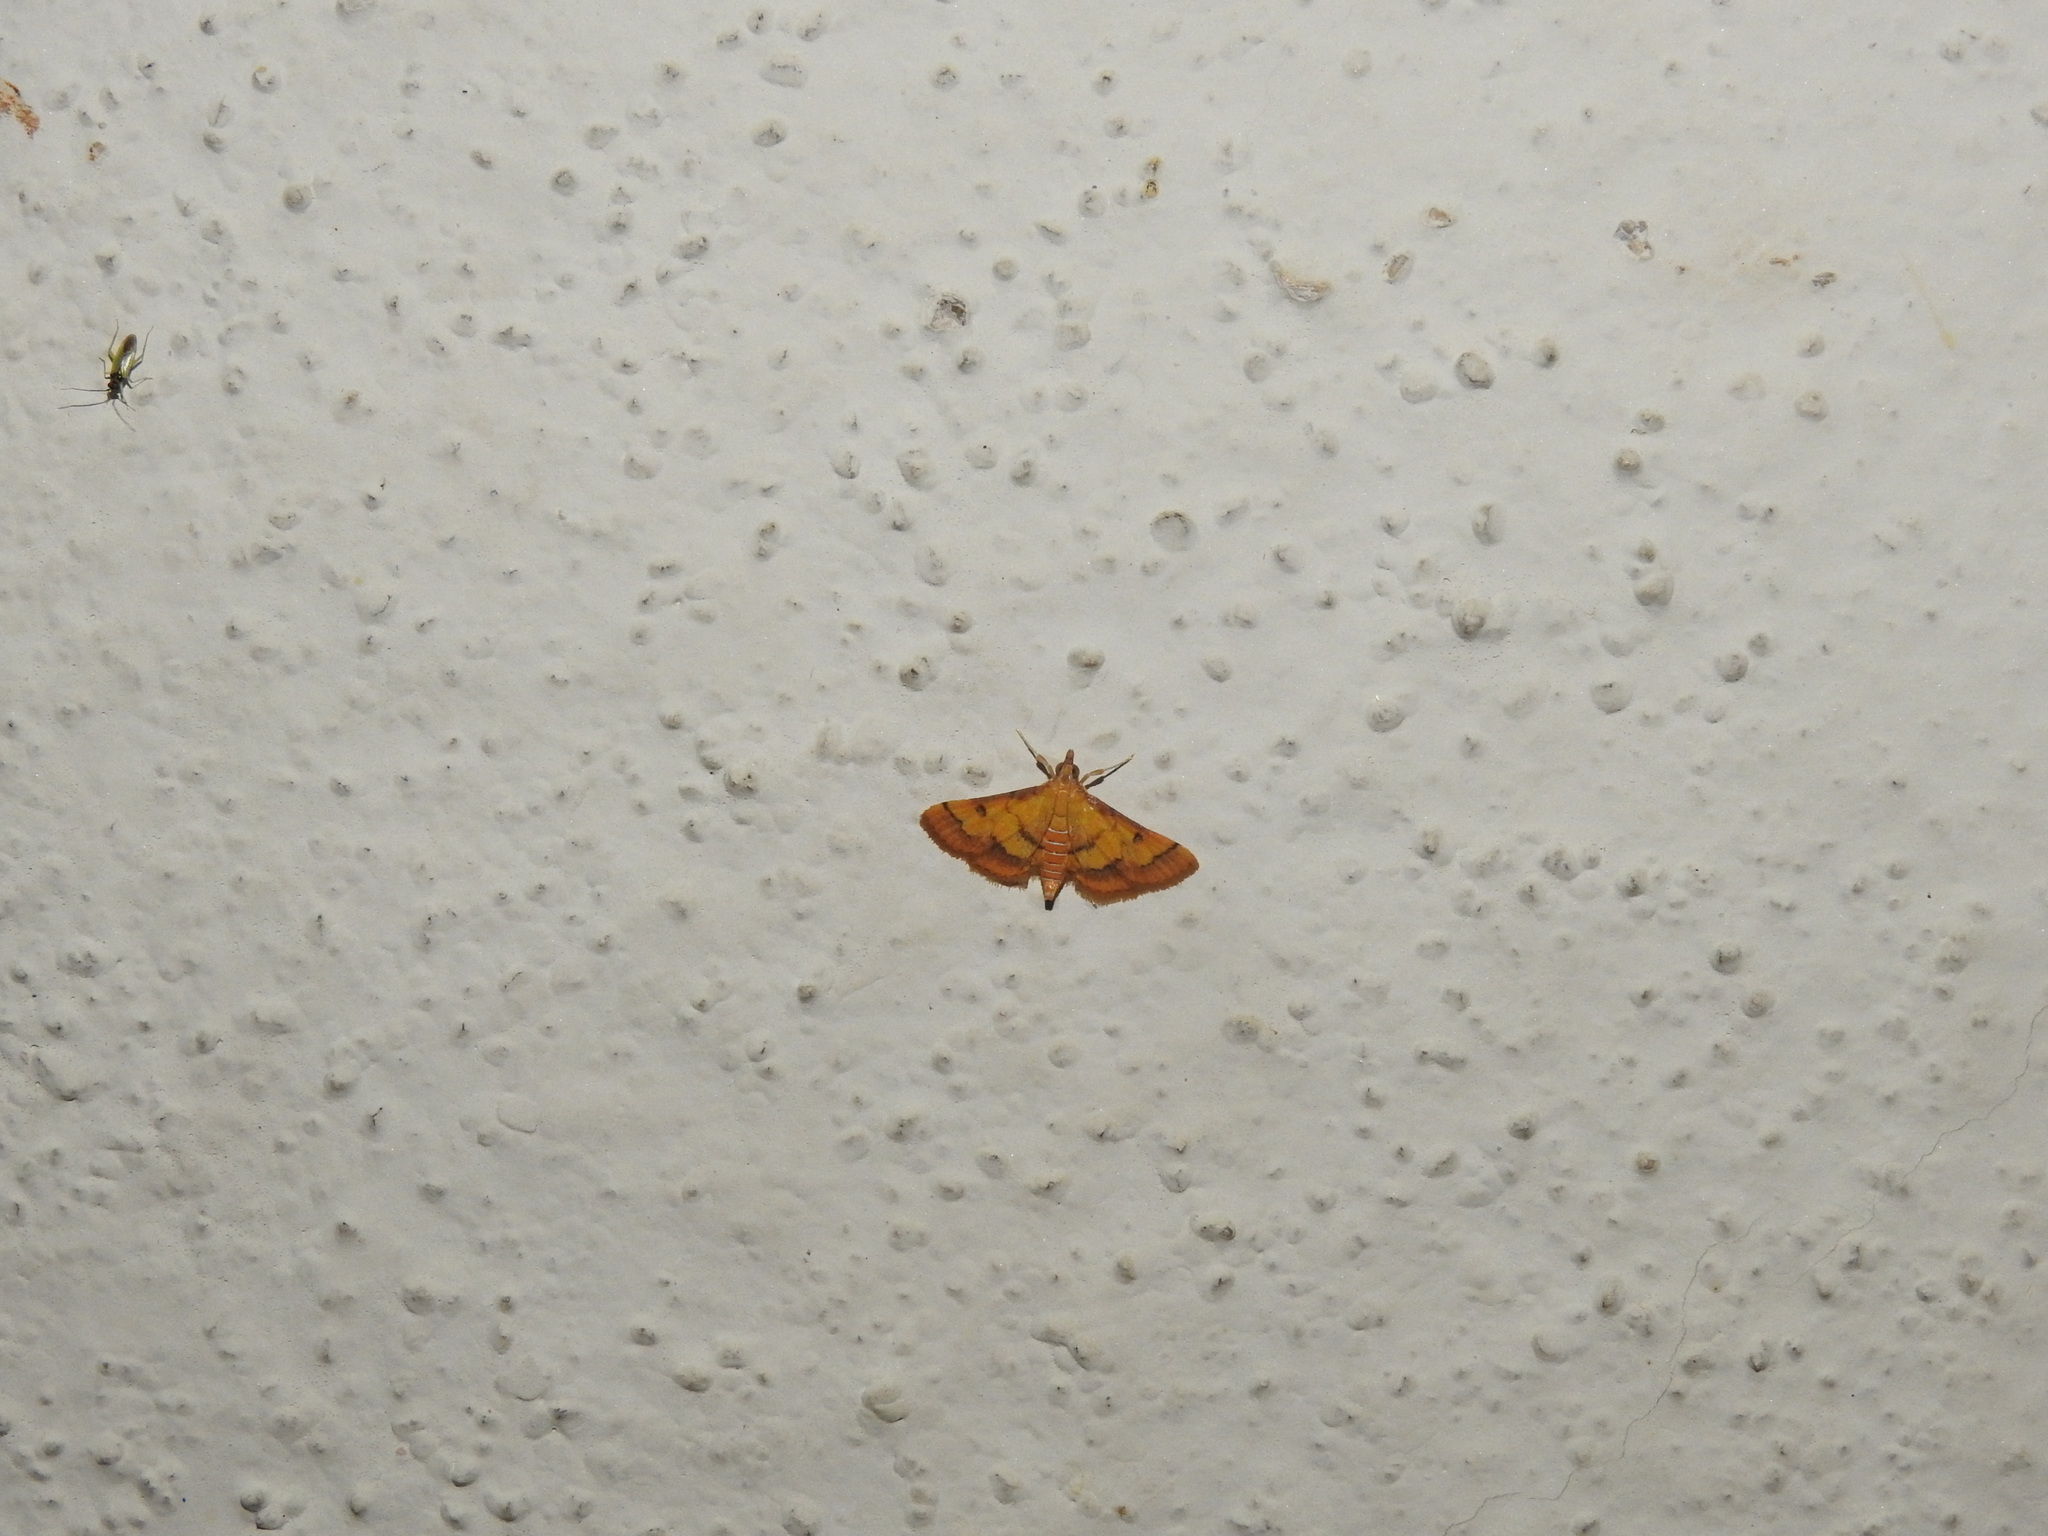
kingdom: Animalia
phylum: Arthropoda
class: Insecta
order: Lepidoptera
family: Crambidae
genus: Ischnurges
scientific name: Ischnurges luteomarginalis
